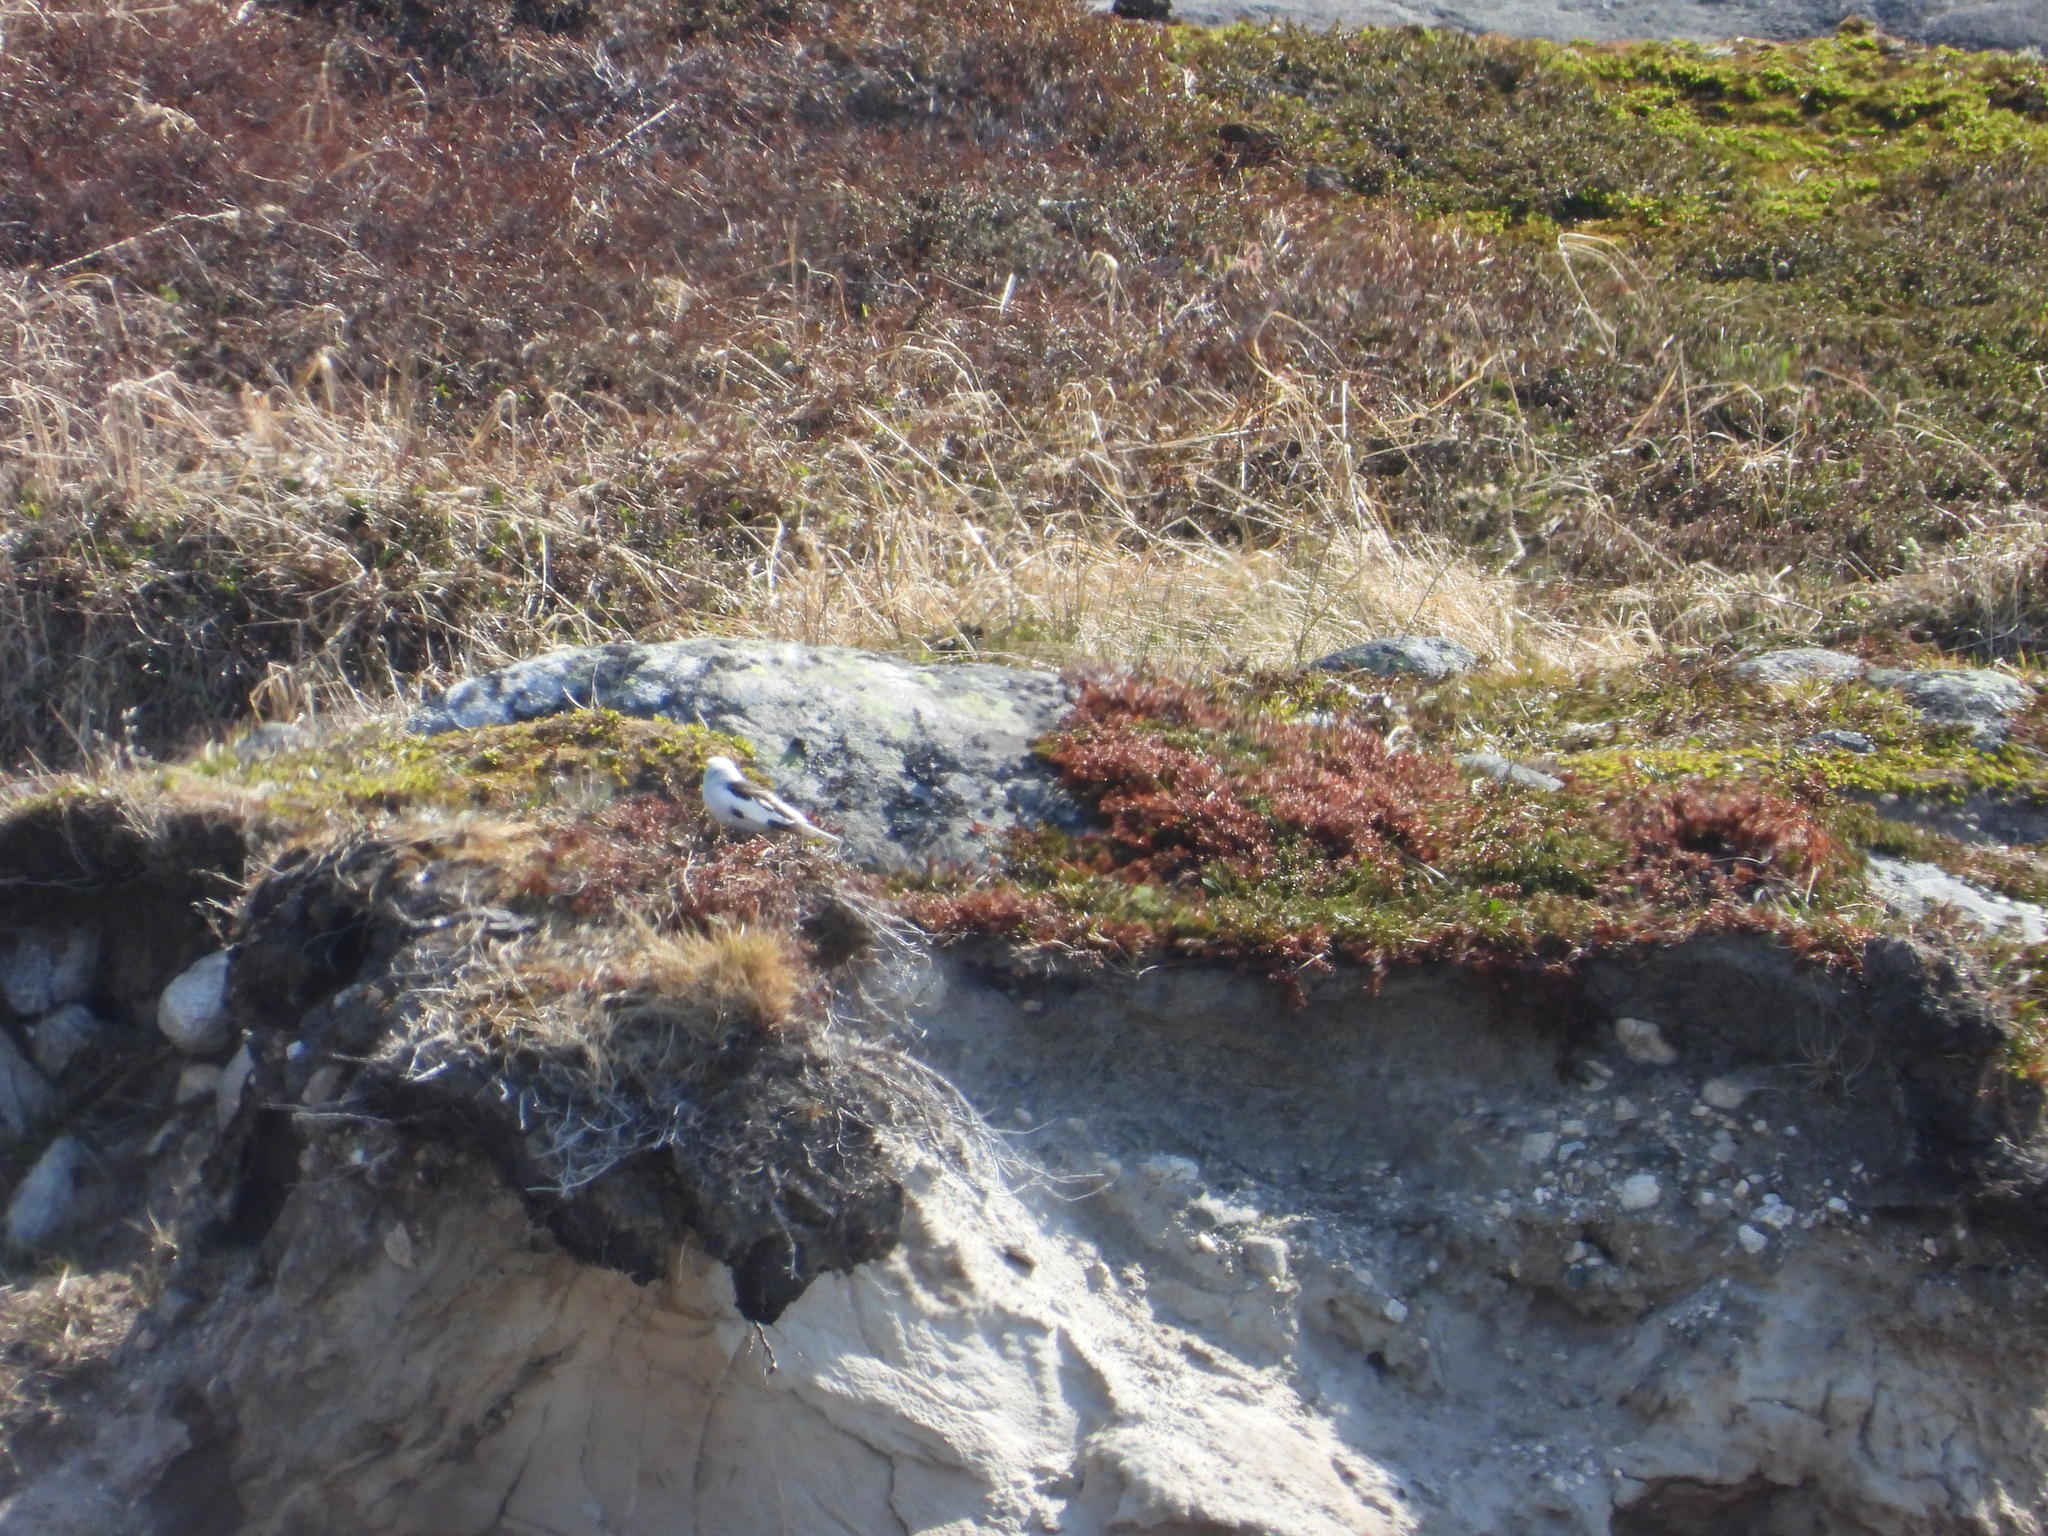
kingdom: Animalia
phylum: Chordata
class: Aves
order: Passeriformes
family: Calcariidae
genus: Plectrophenax
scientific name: Plectrophenax nivalis
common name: Snow bunting
